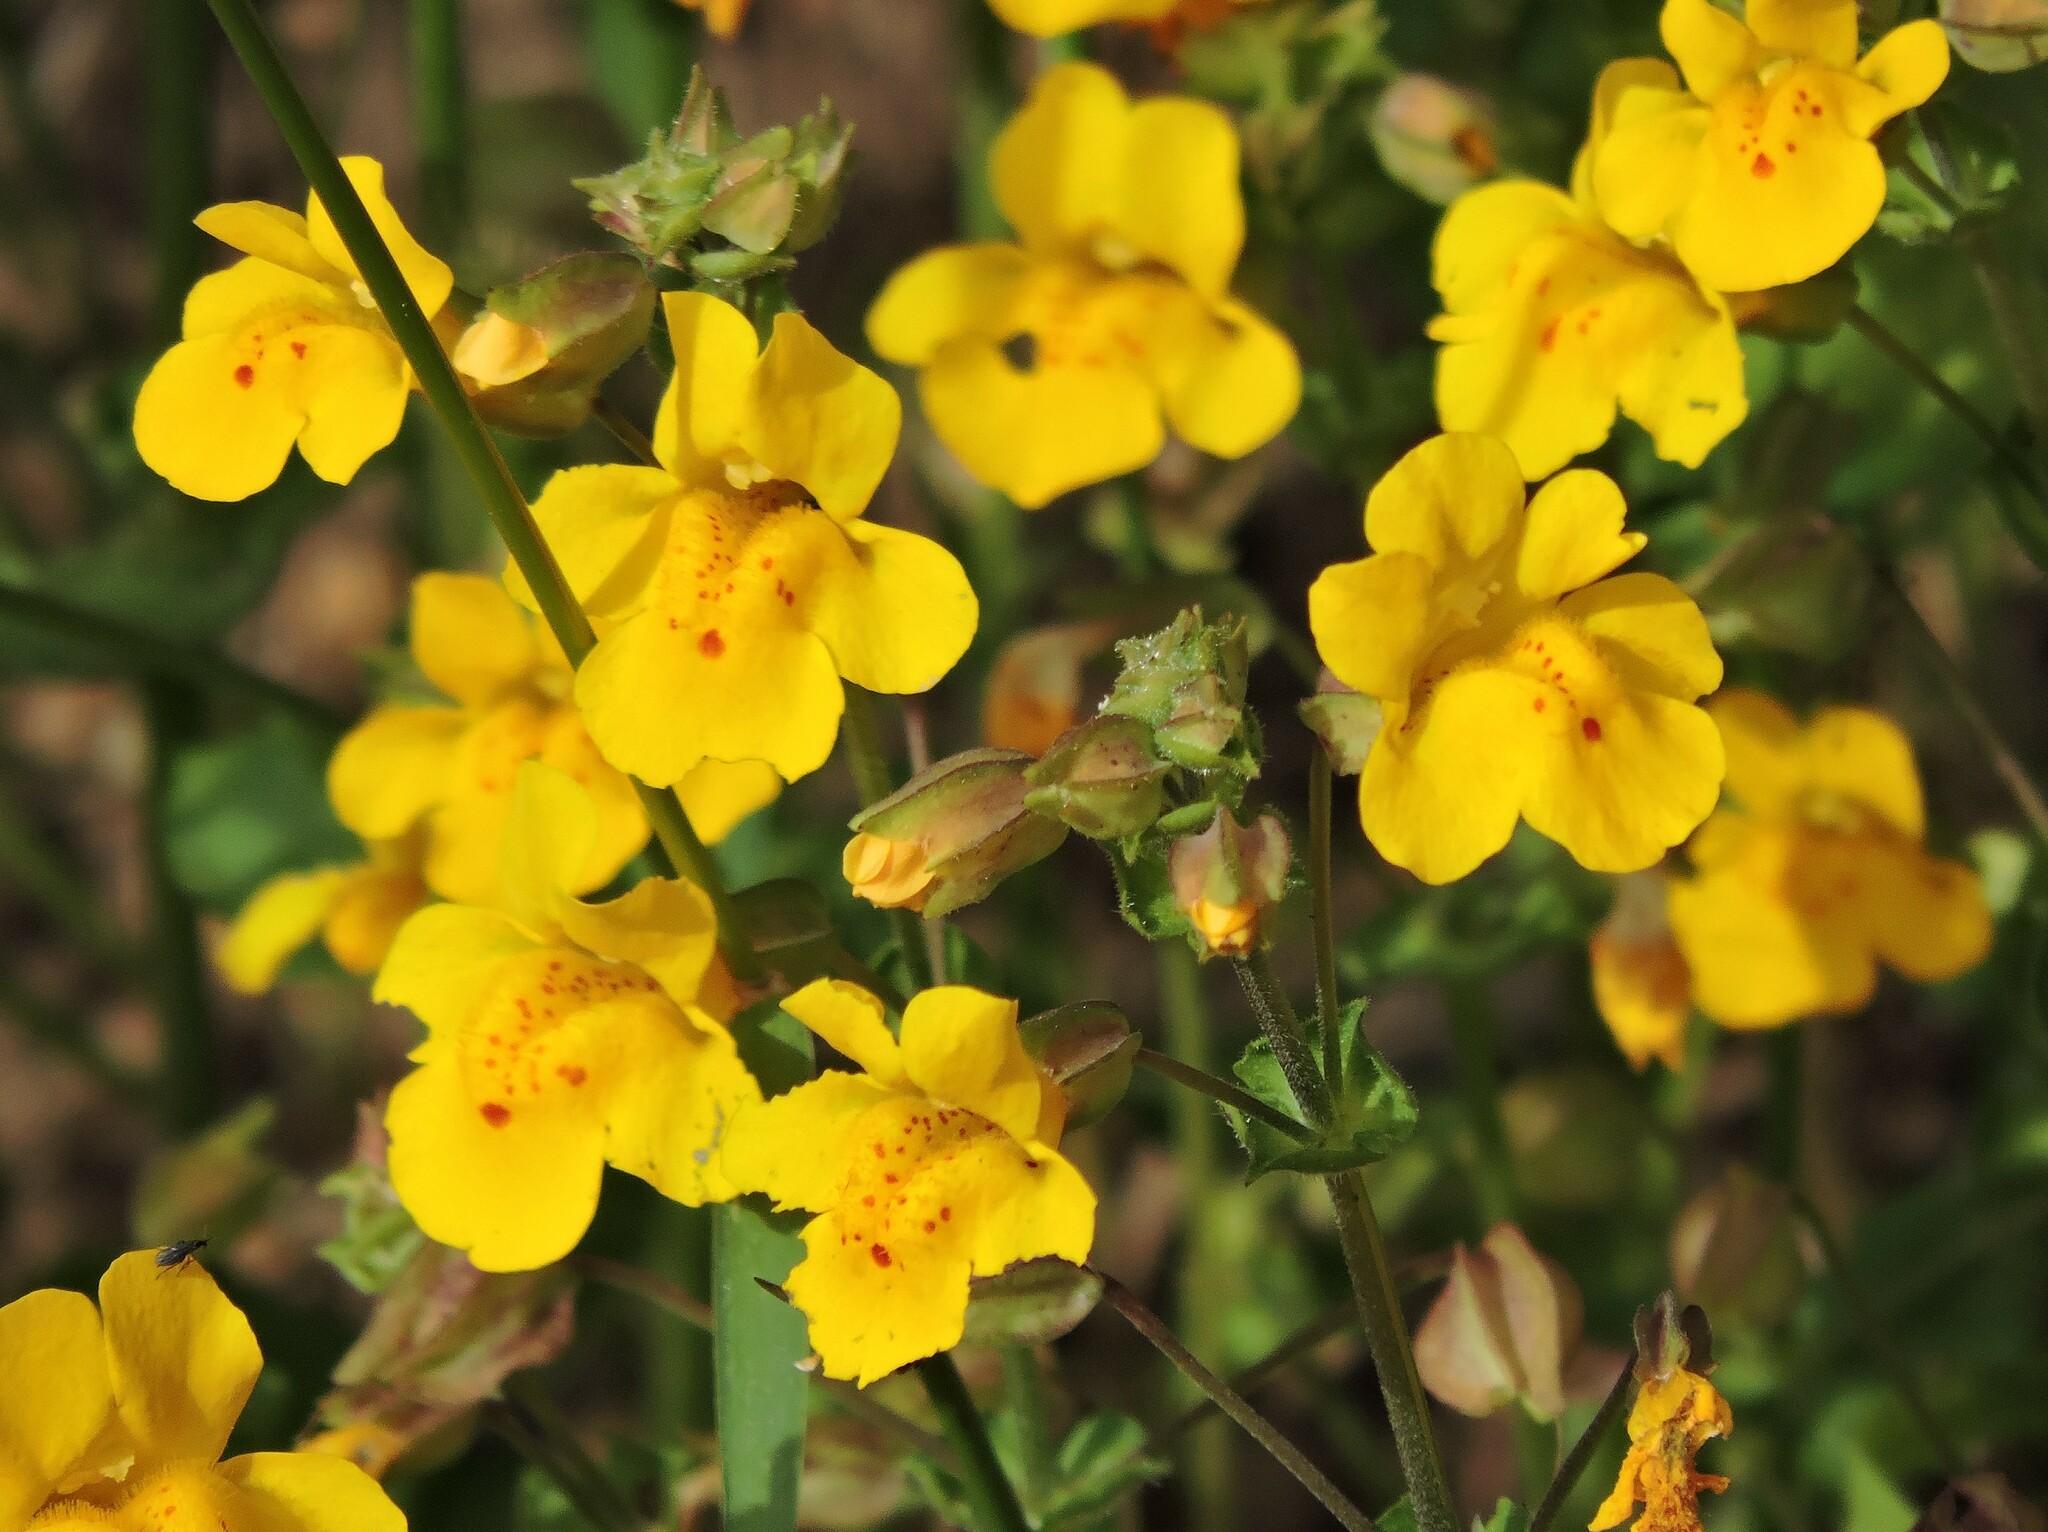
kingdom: Plantae
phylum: Tracheophyta
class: Magnoliopsida
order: Lamiales
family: Phrymaceae
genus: Erythranthe
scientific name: Erythranthe guttata
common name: Monkeyflower
